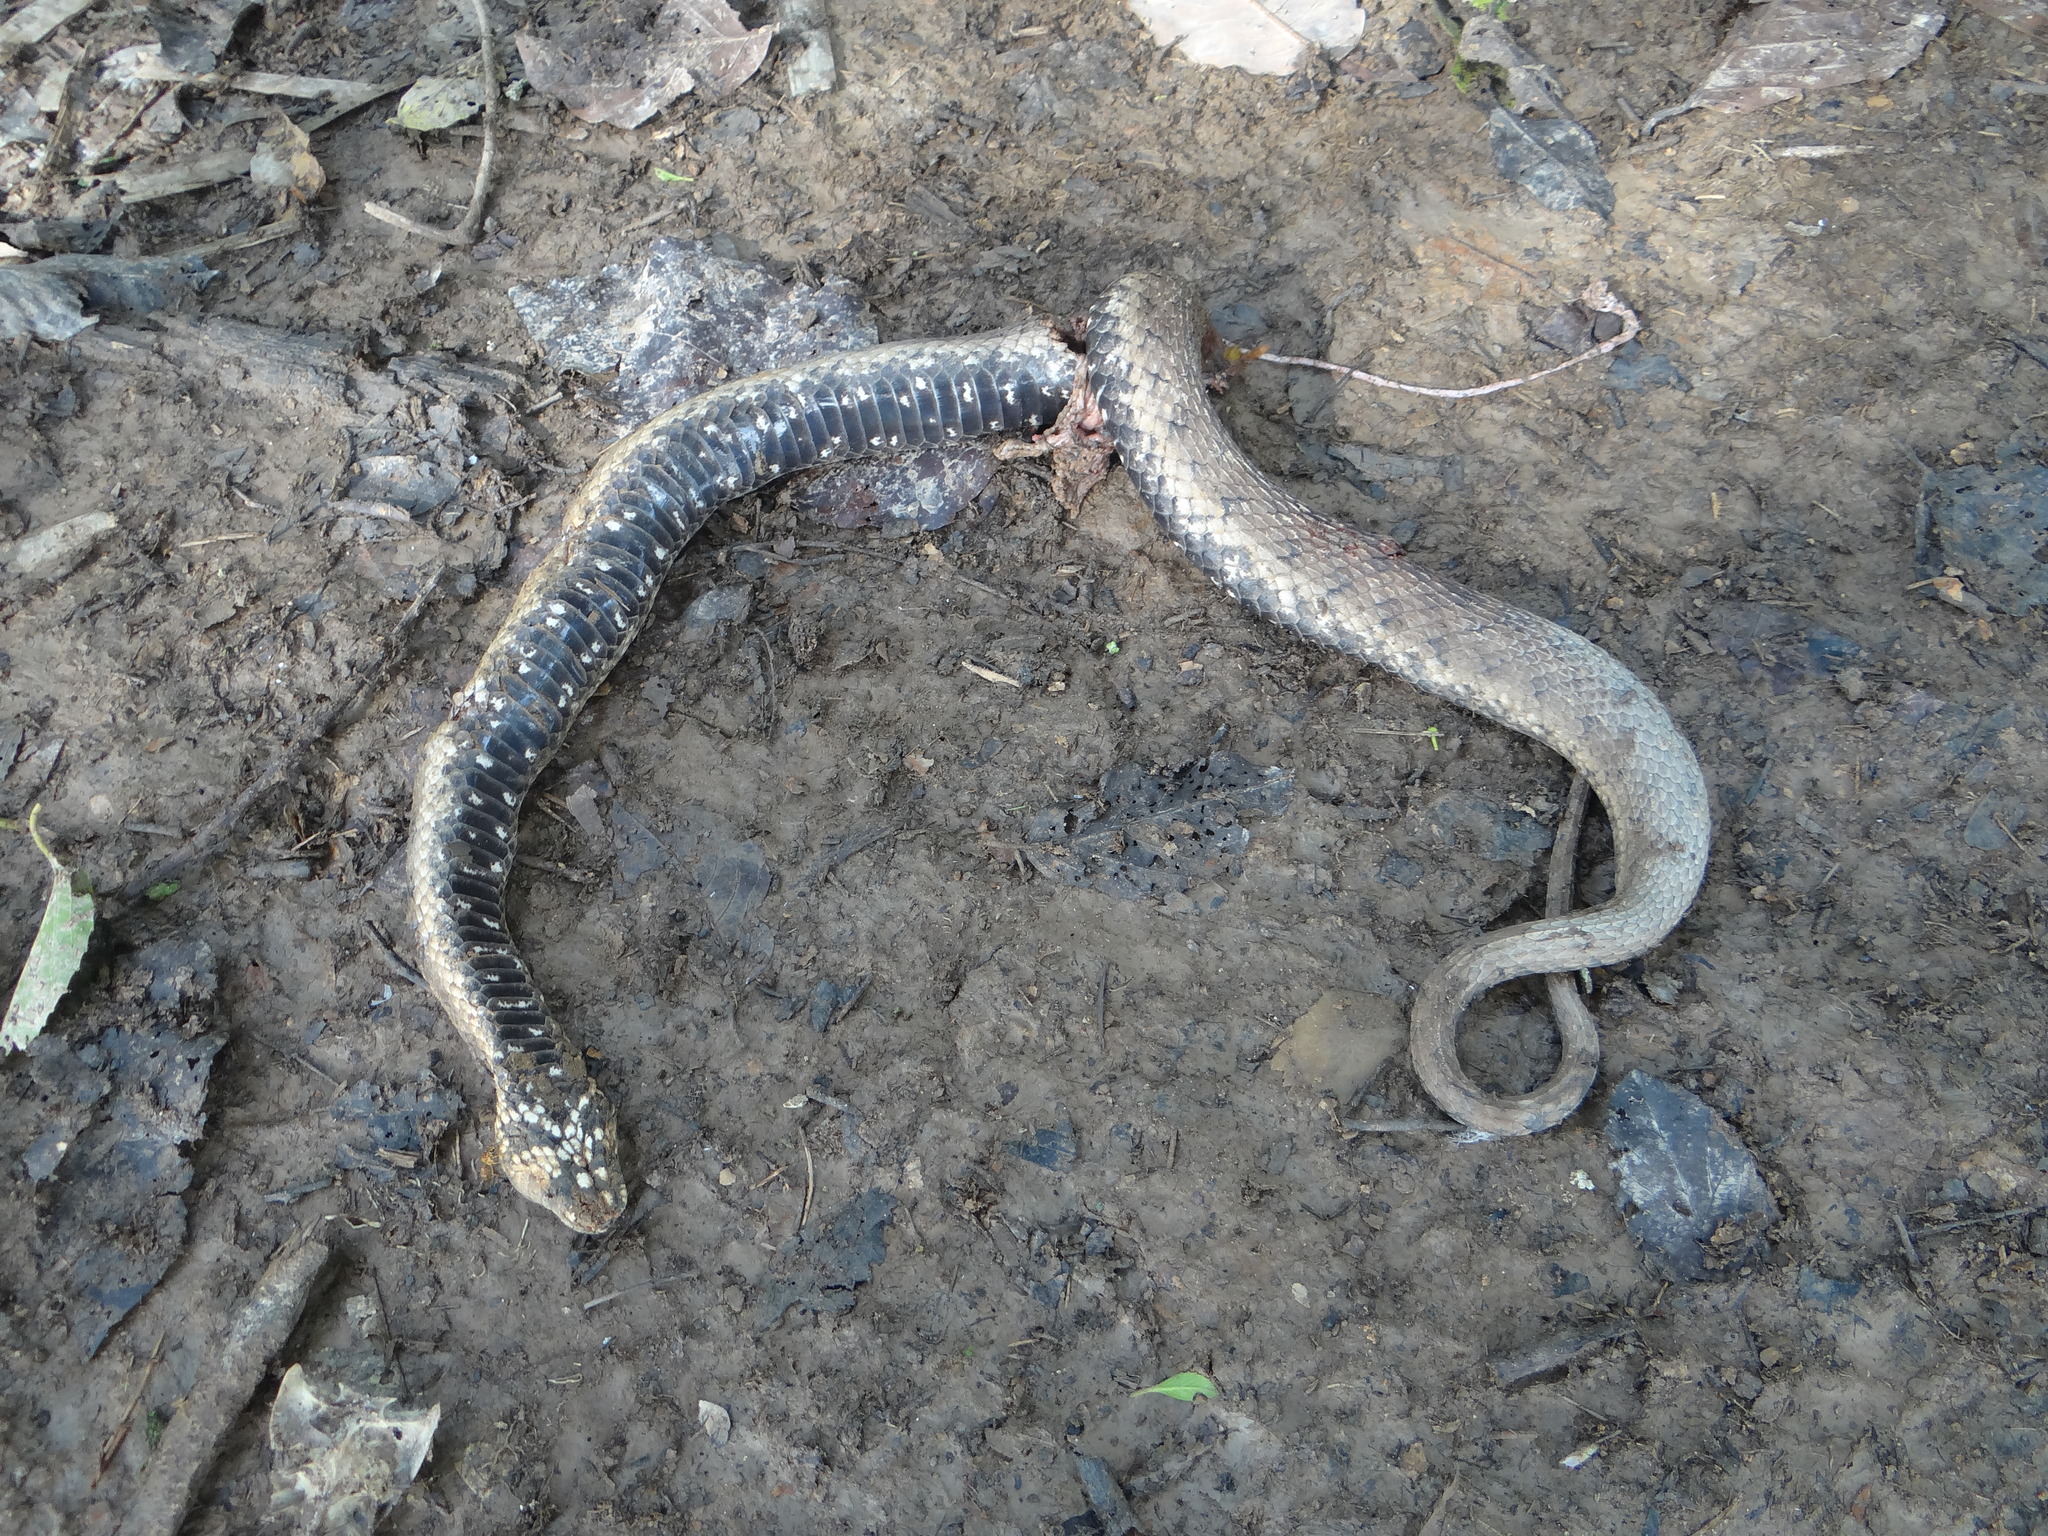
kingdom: Animalia
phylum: Chordata
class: Squamata
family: Colubridae
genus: Helicops
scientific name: Helicops polylepis
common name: Norman's keelback
